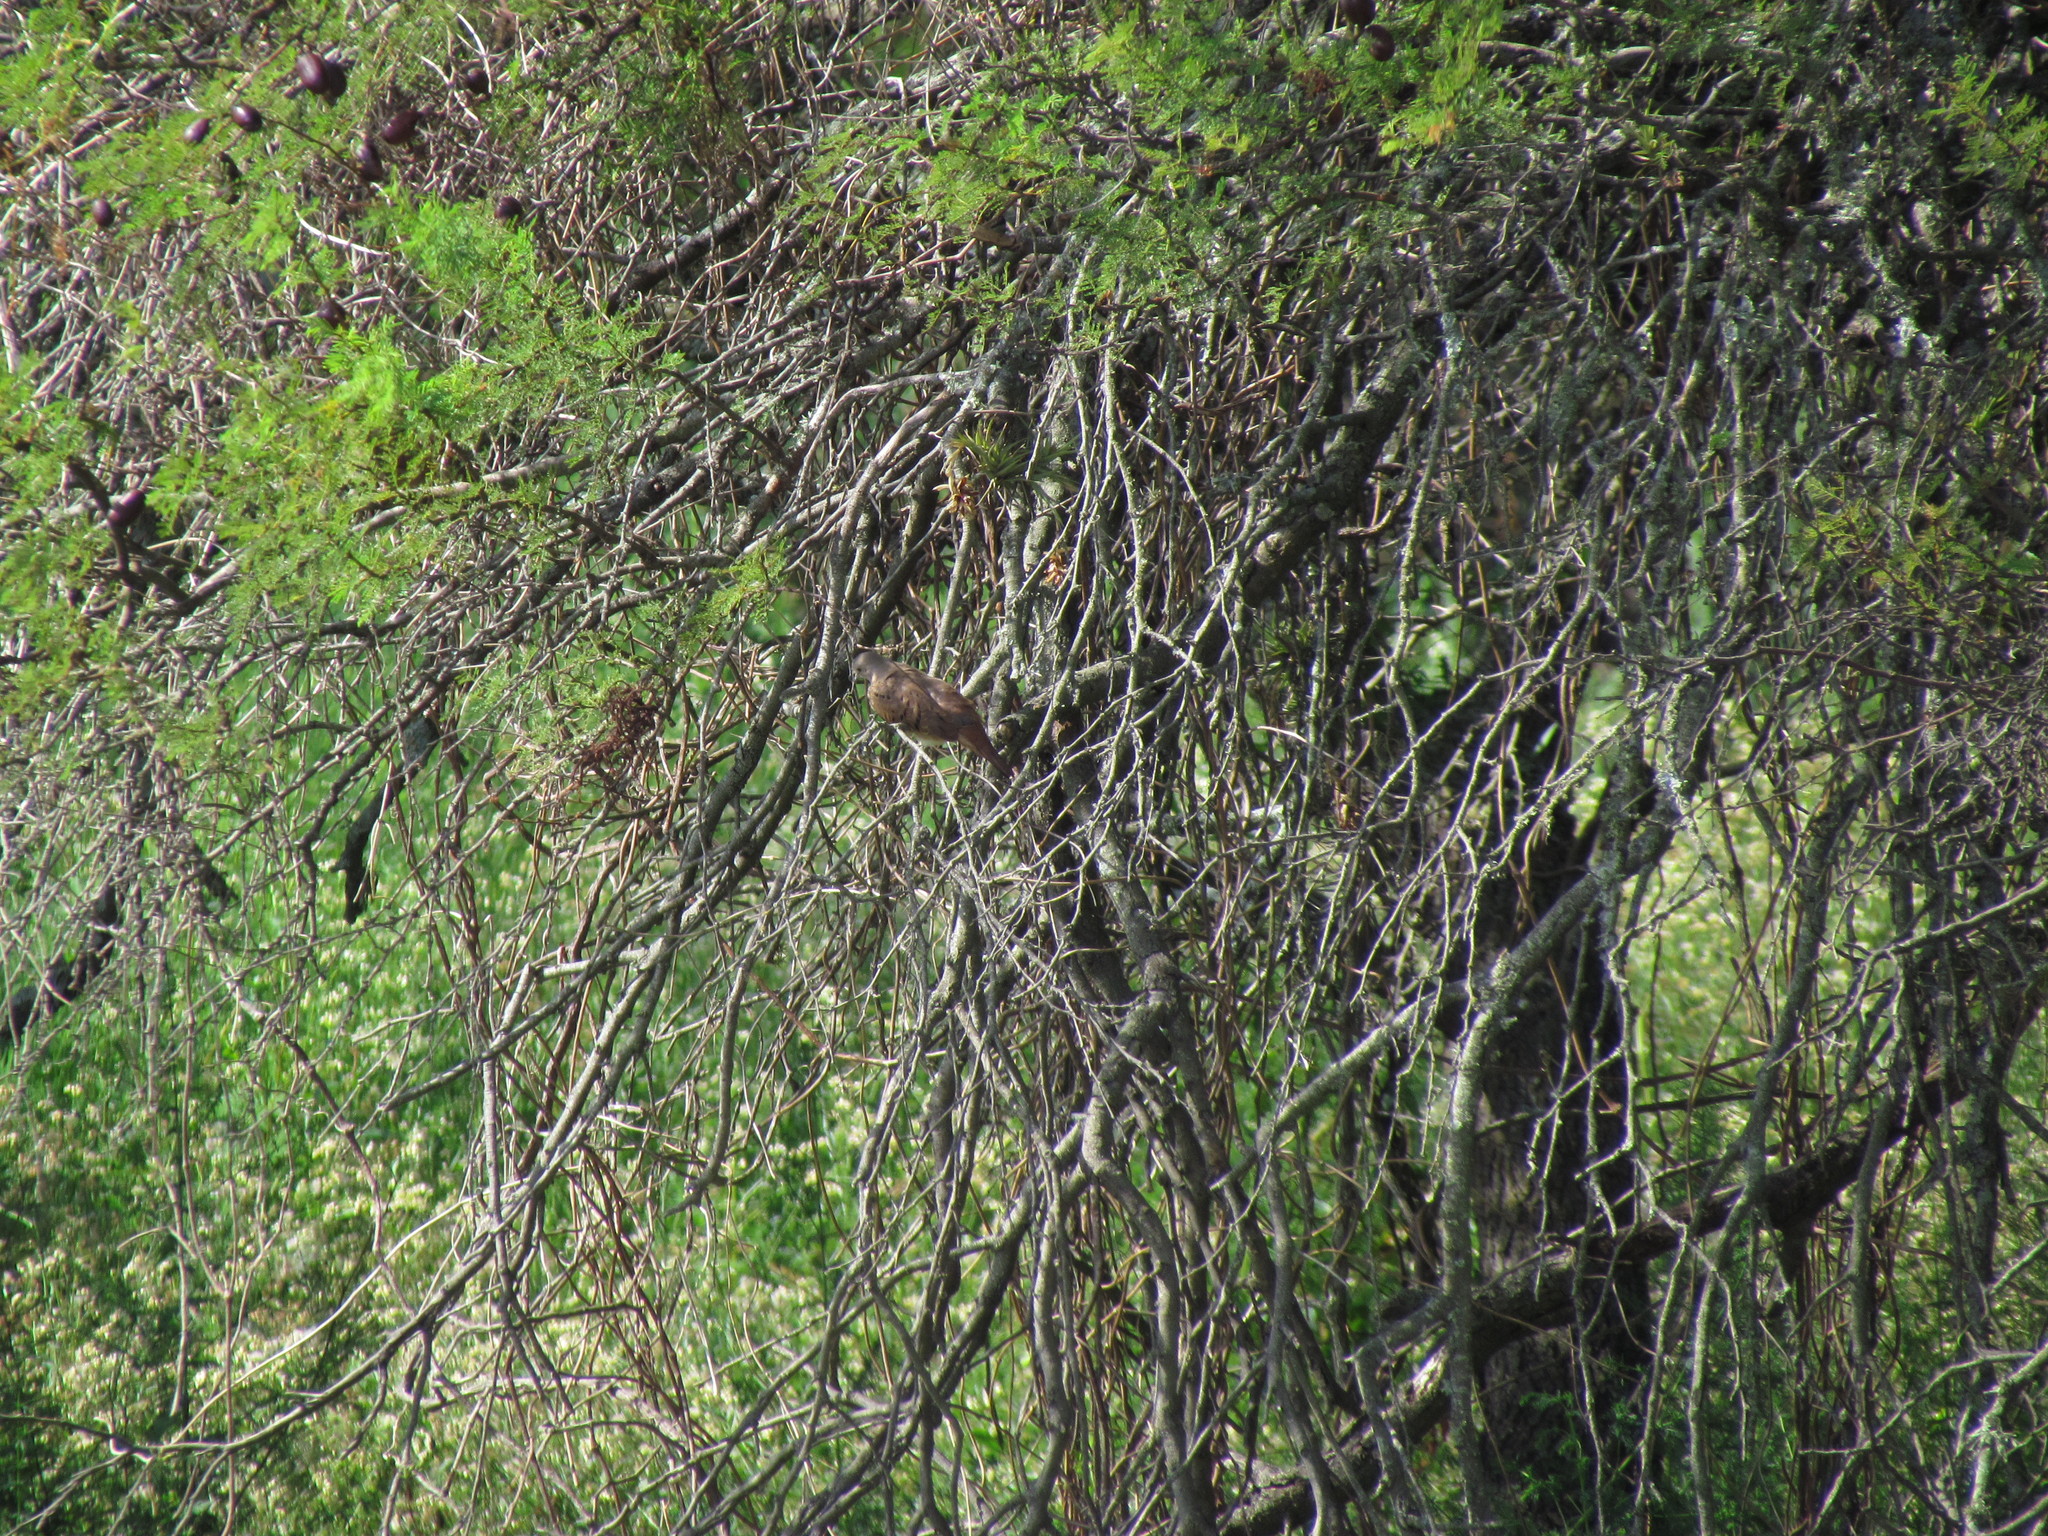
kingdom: Animalia
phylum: Chordata
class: Aves
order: Columbiformes
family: Columbidae
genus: Columbina
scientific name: Columbina talpacoti
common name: Ruddy ground dove
